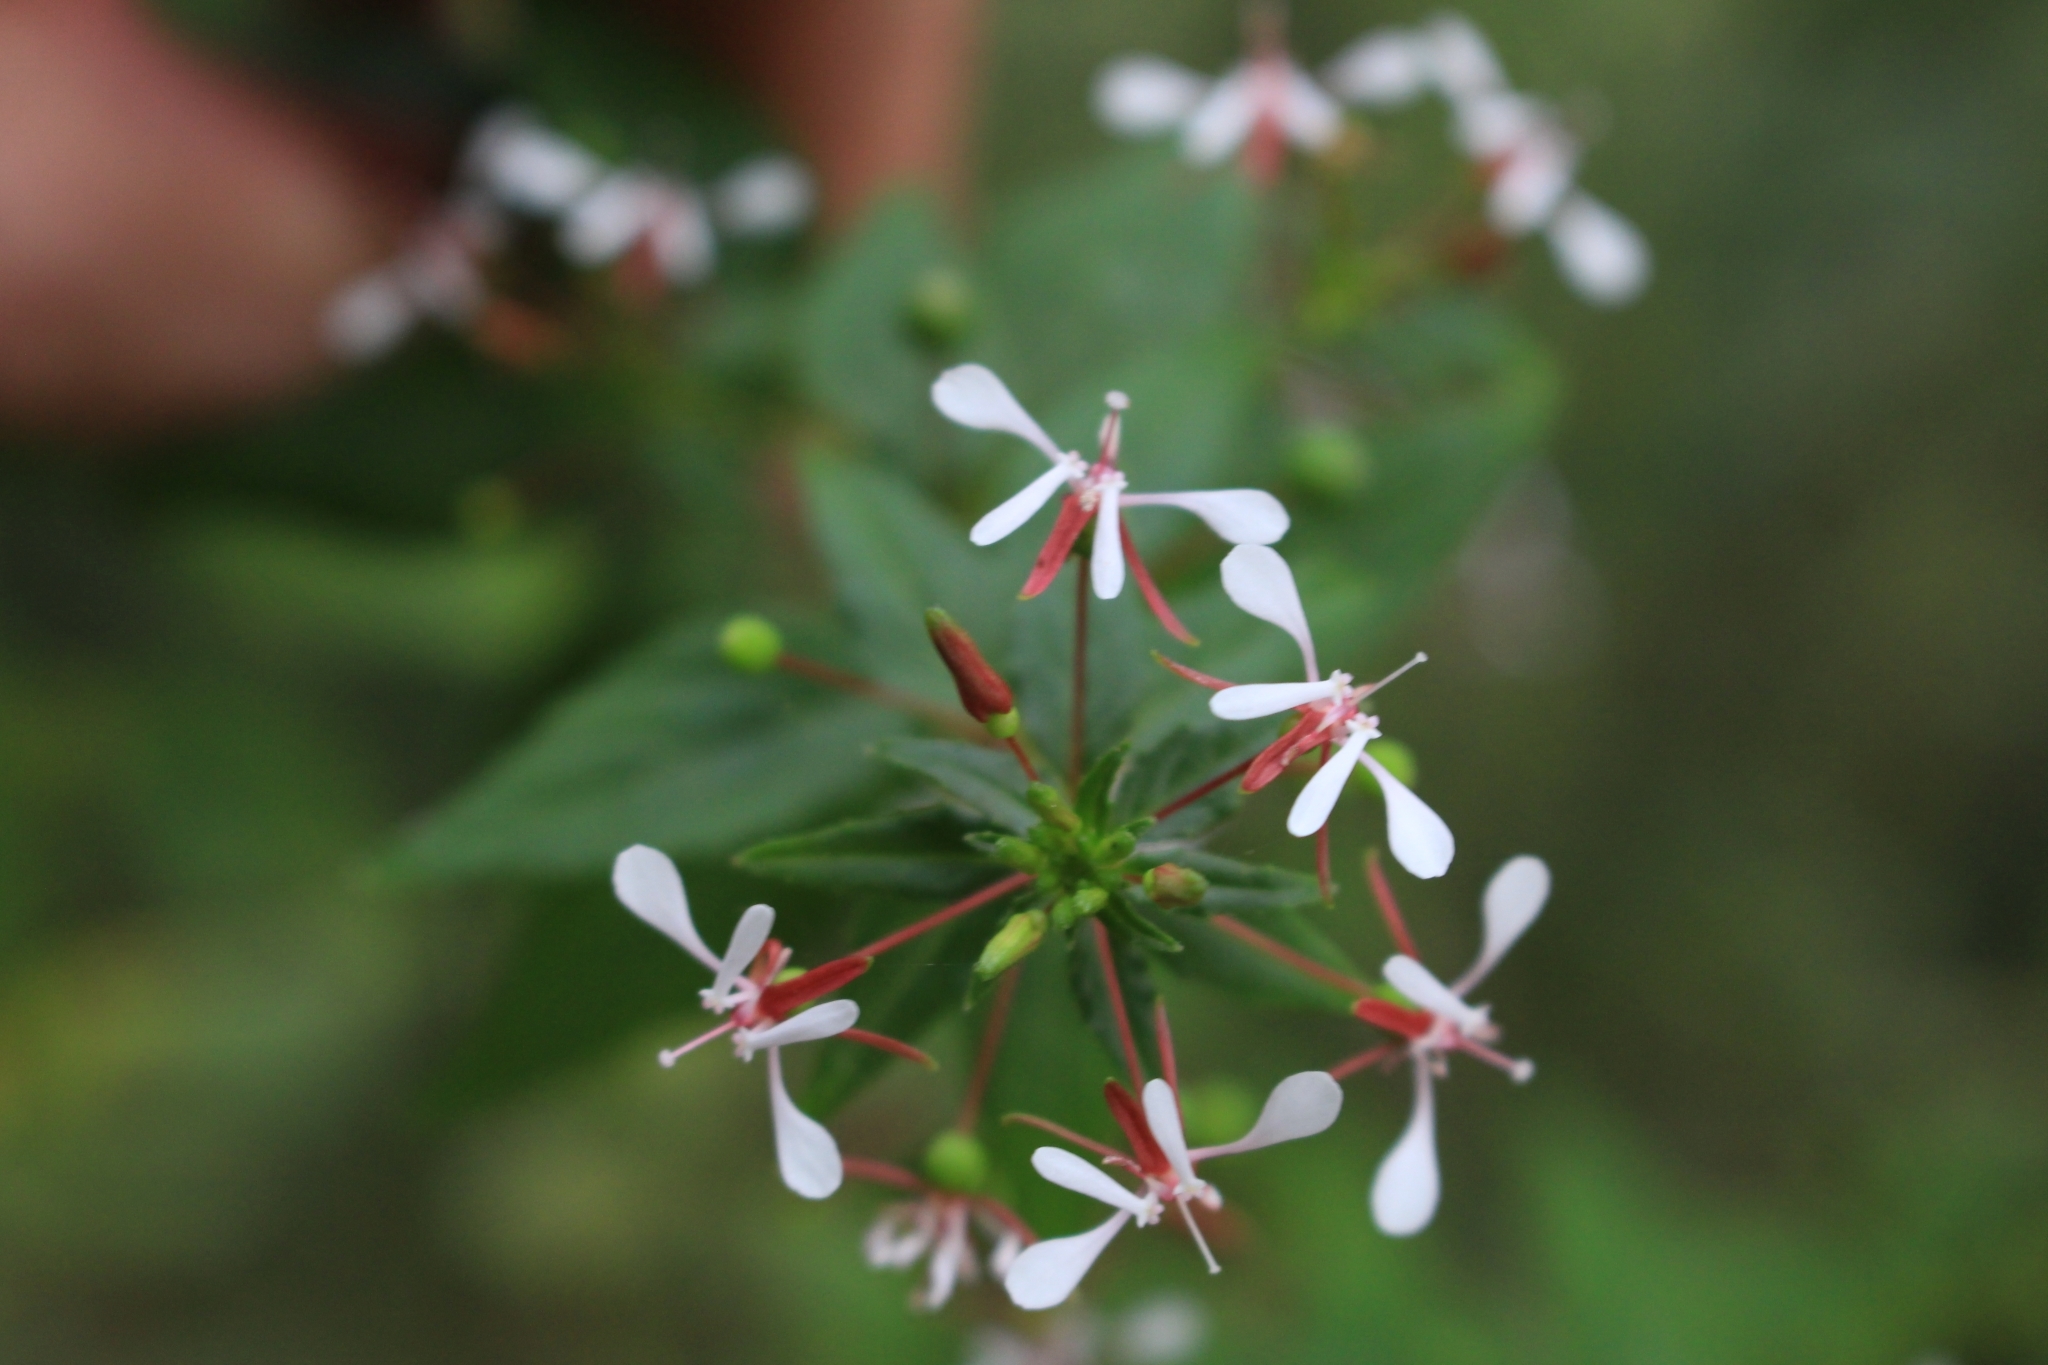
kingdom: Plantae
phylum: Tracheophyta
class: Magnoliopsida
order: Myrtales
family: Onagraceae
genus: Lopezia
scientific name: Lopezia miniata
